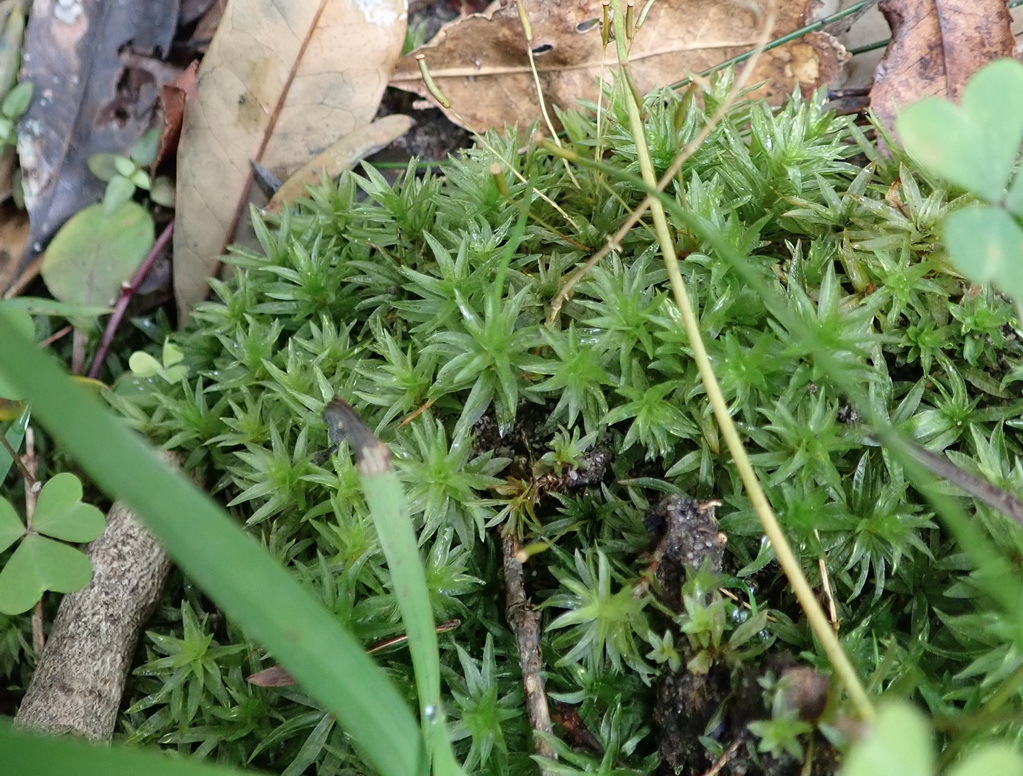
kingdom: Plantae
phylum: Bryophyta
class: Polytrichopsida
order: Polytrichales
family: Polytrichaceae
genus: Atrichum
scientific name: Atrichum androgynum
